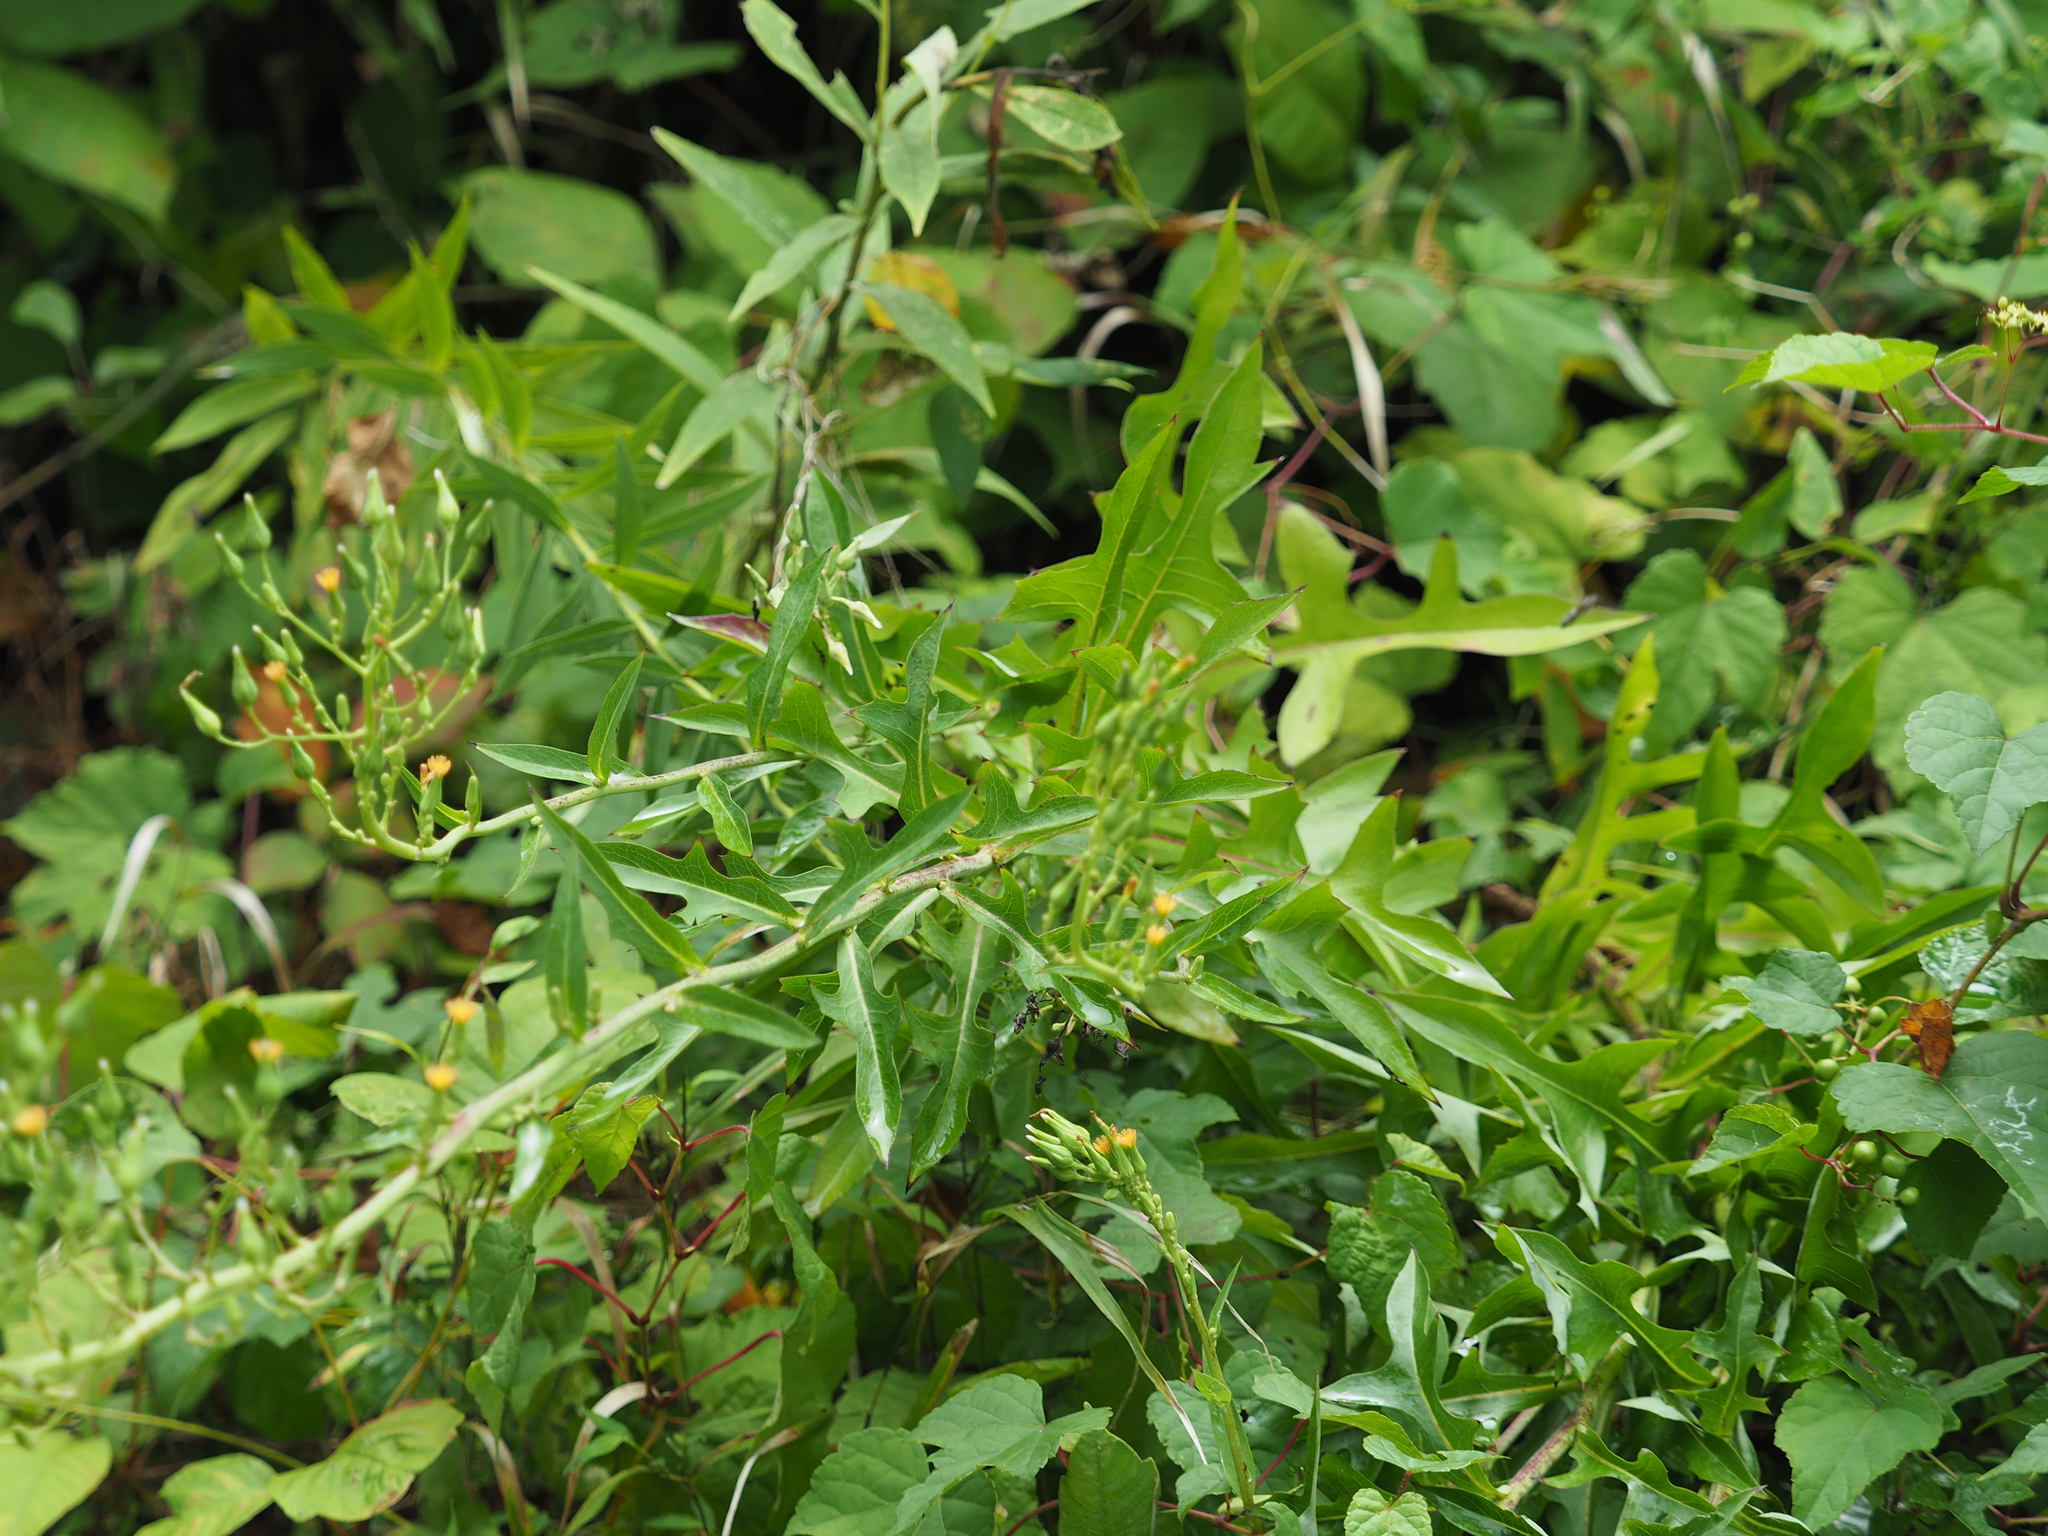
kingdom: Plantae
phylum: Tracheophyta
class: Magnoliopsida
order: Asterales
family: Asteraceae
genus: Lactuca
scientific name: Lactuca canadensis
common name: Canada lettuce
